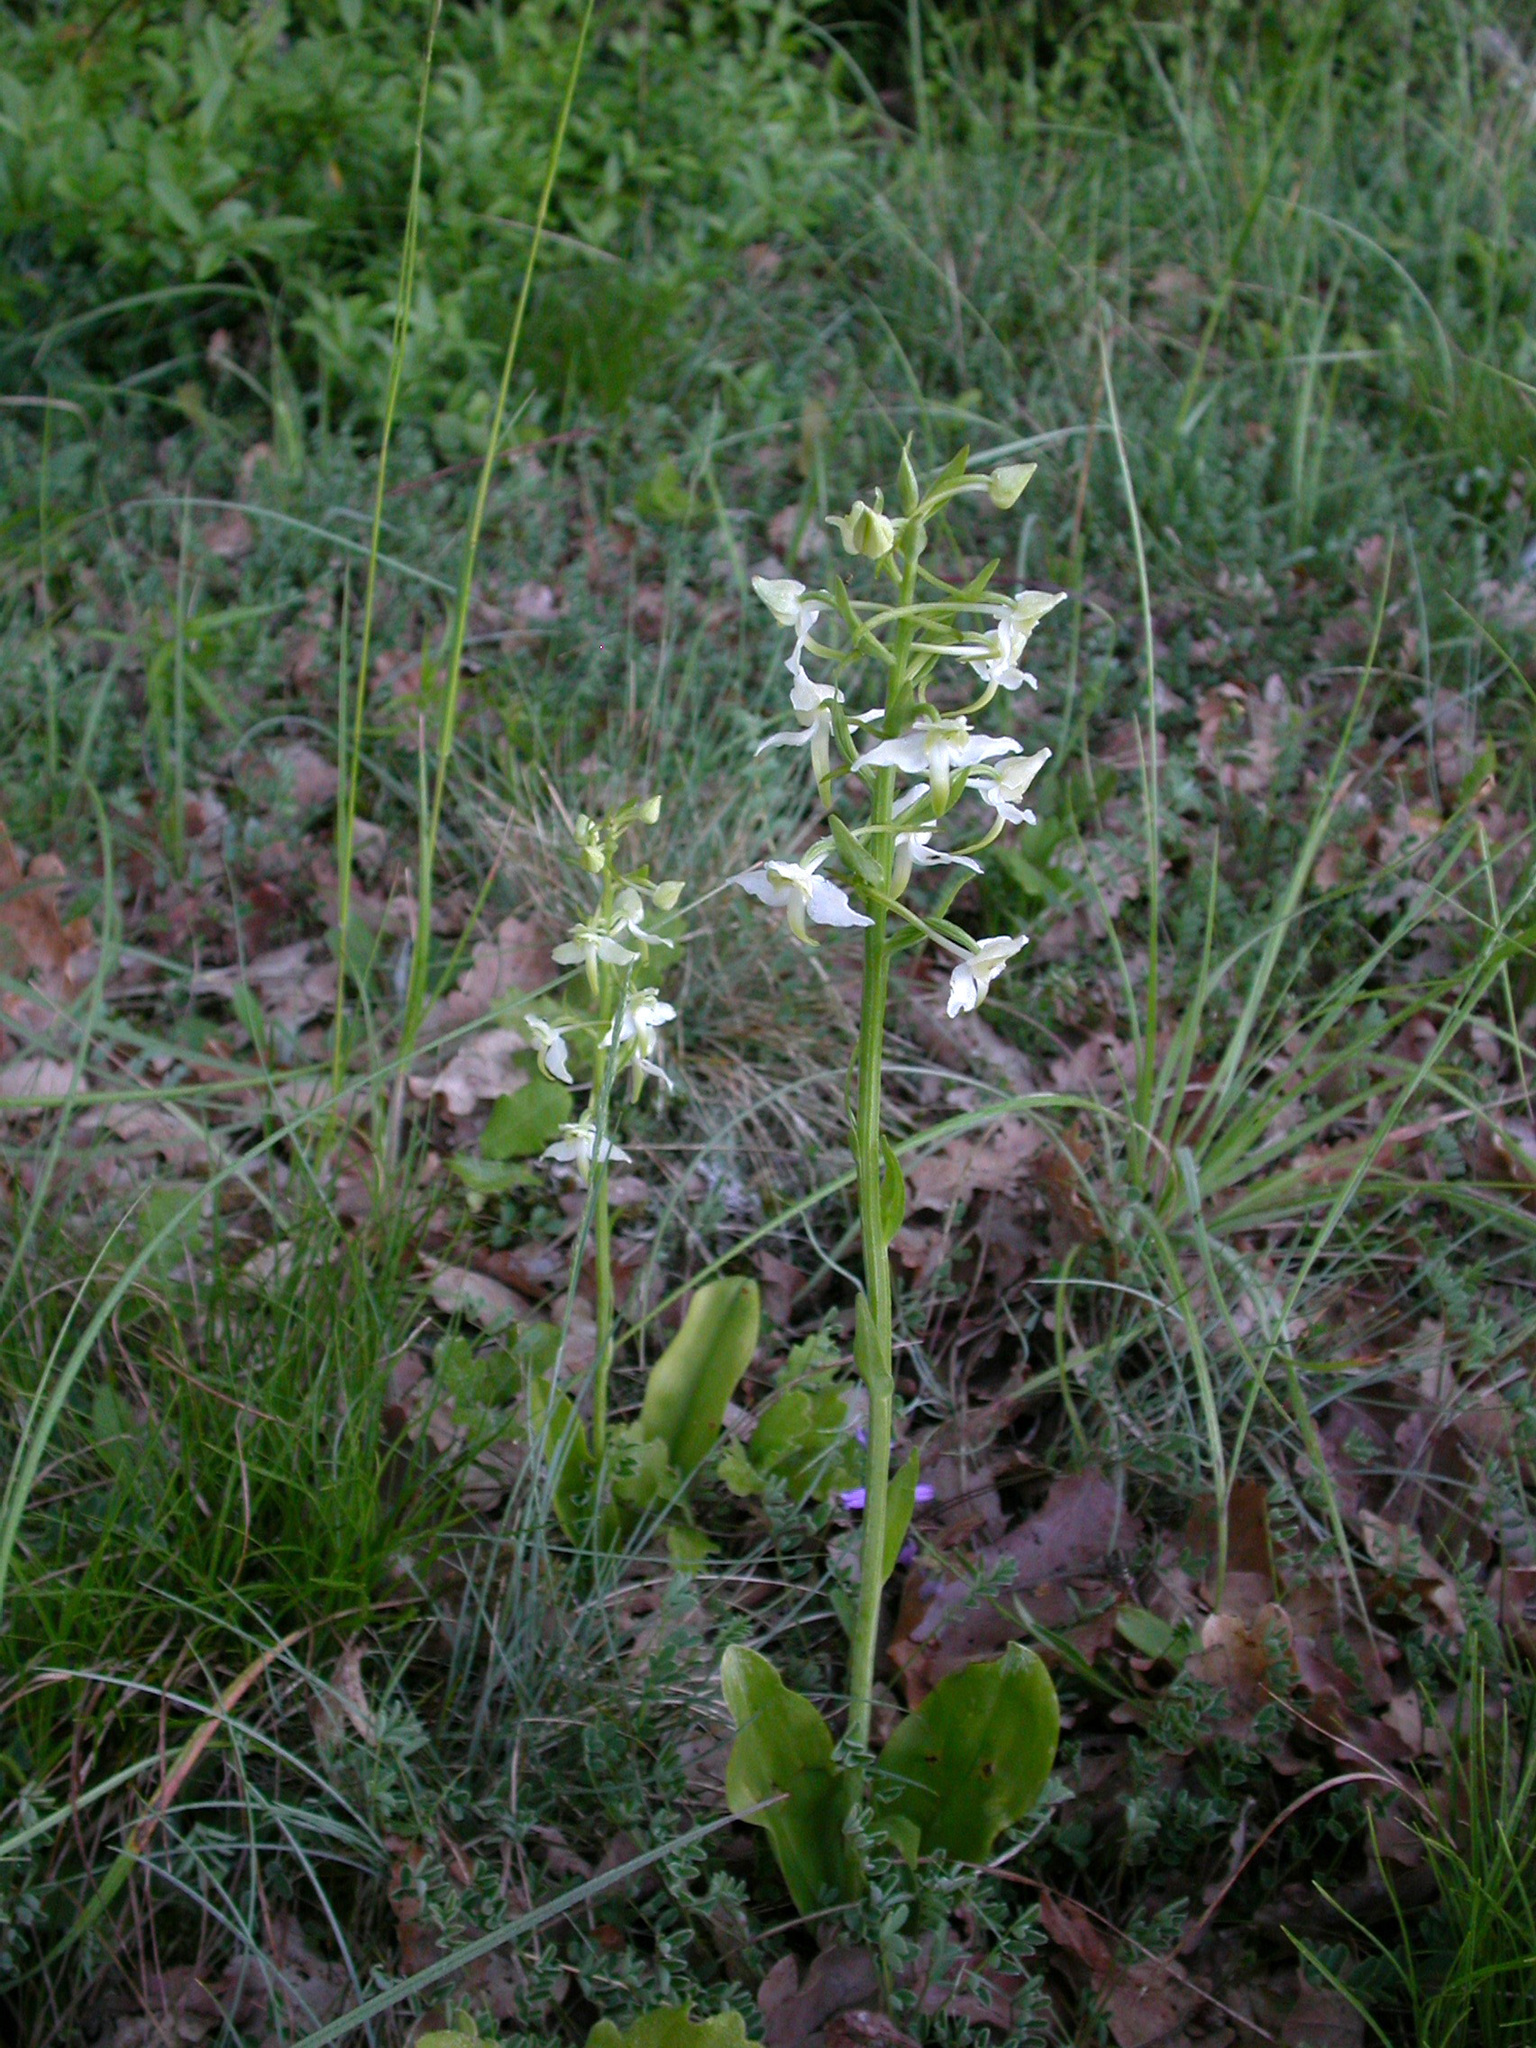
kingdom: Plantae
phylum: Tracheophyta
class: Liliopsida
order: Asparagales
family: Orchidaceae
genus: Platanthera
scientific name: Platanthera chlorantha
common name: Greater butterfly-orchid
